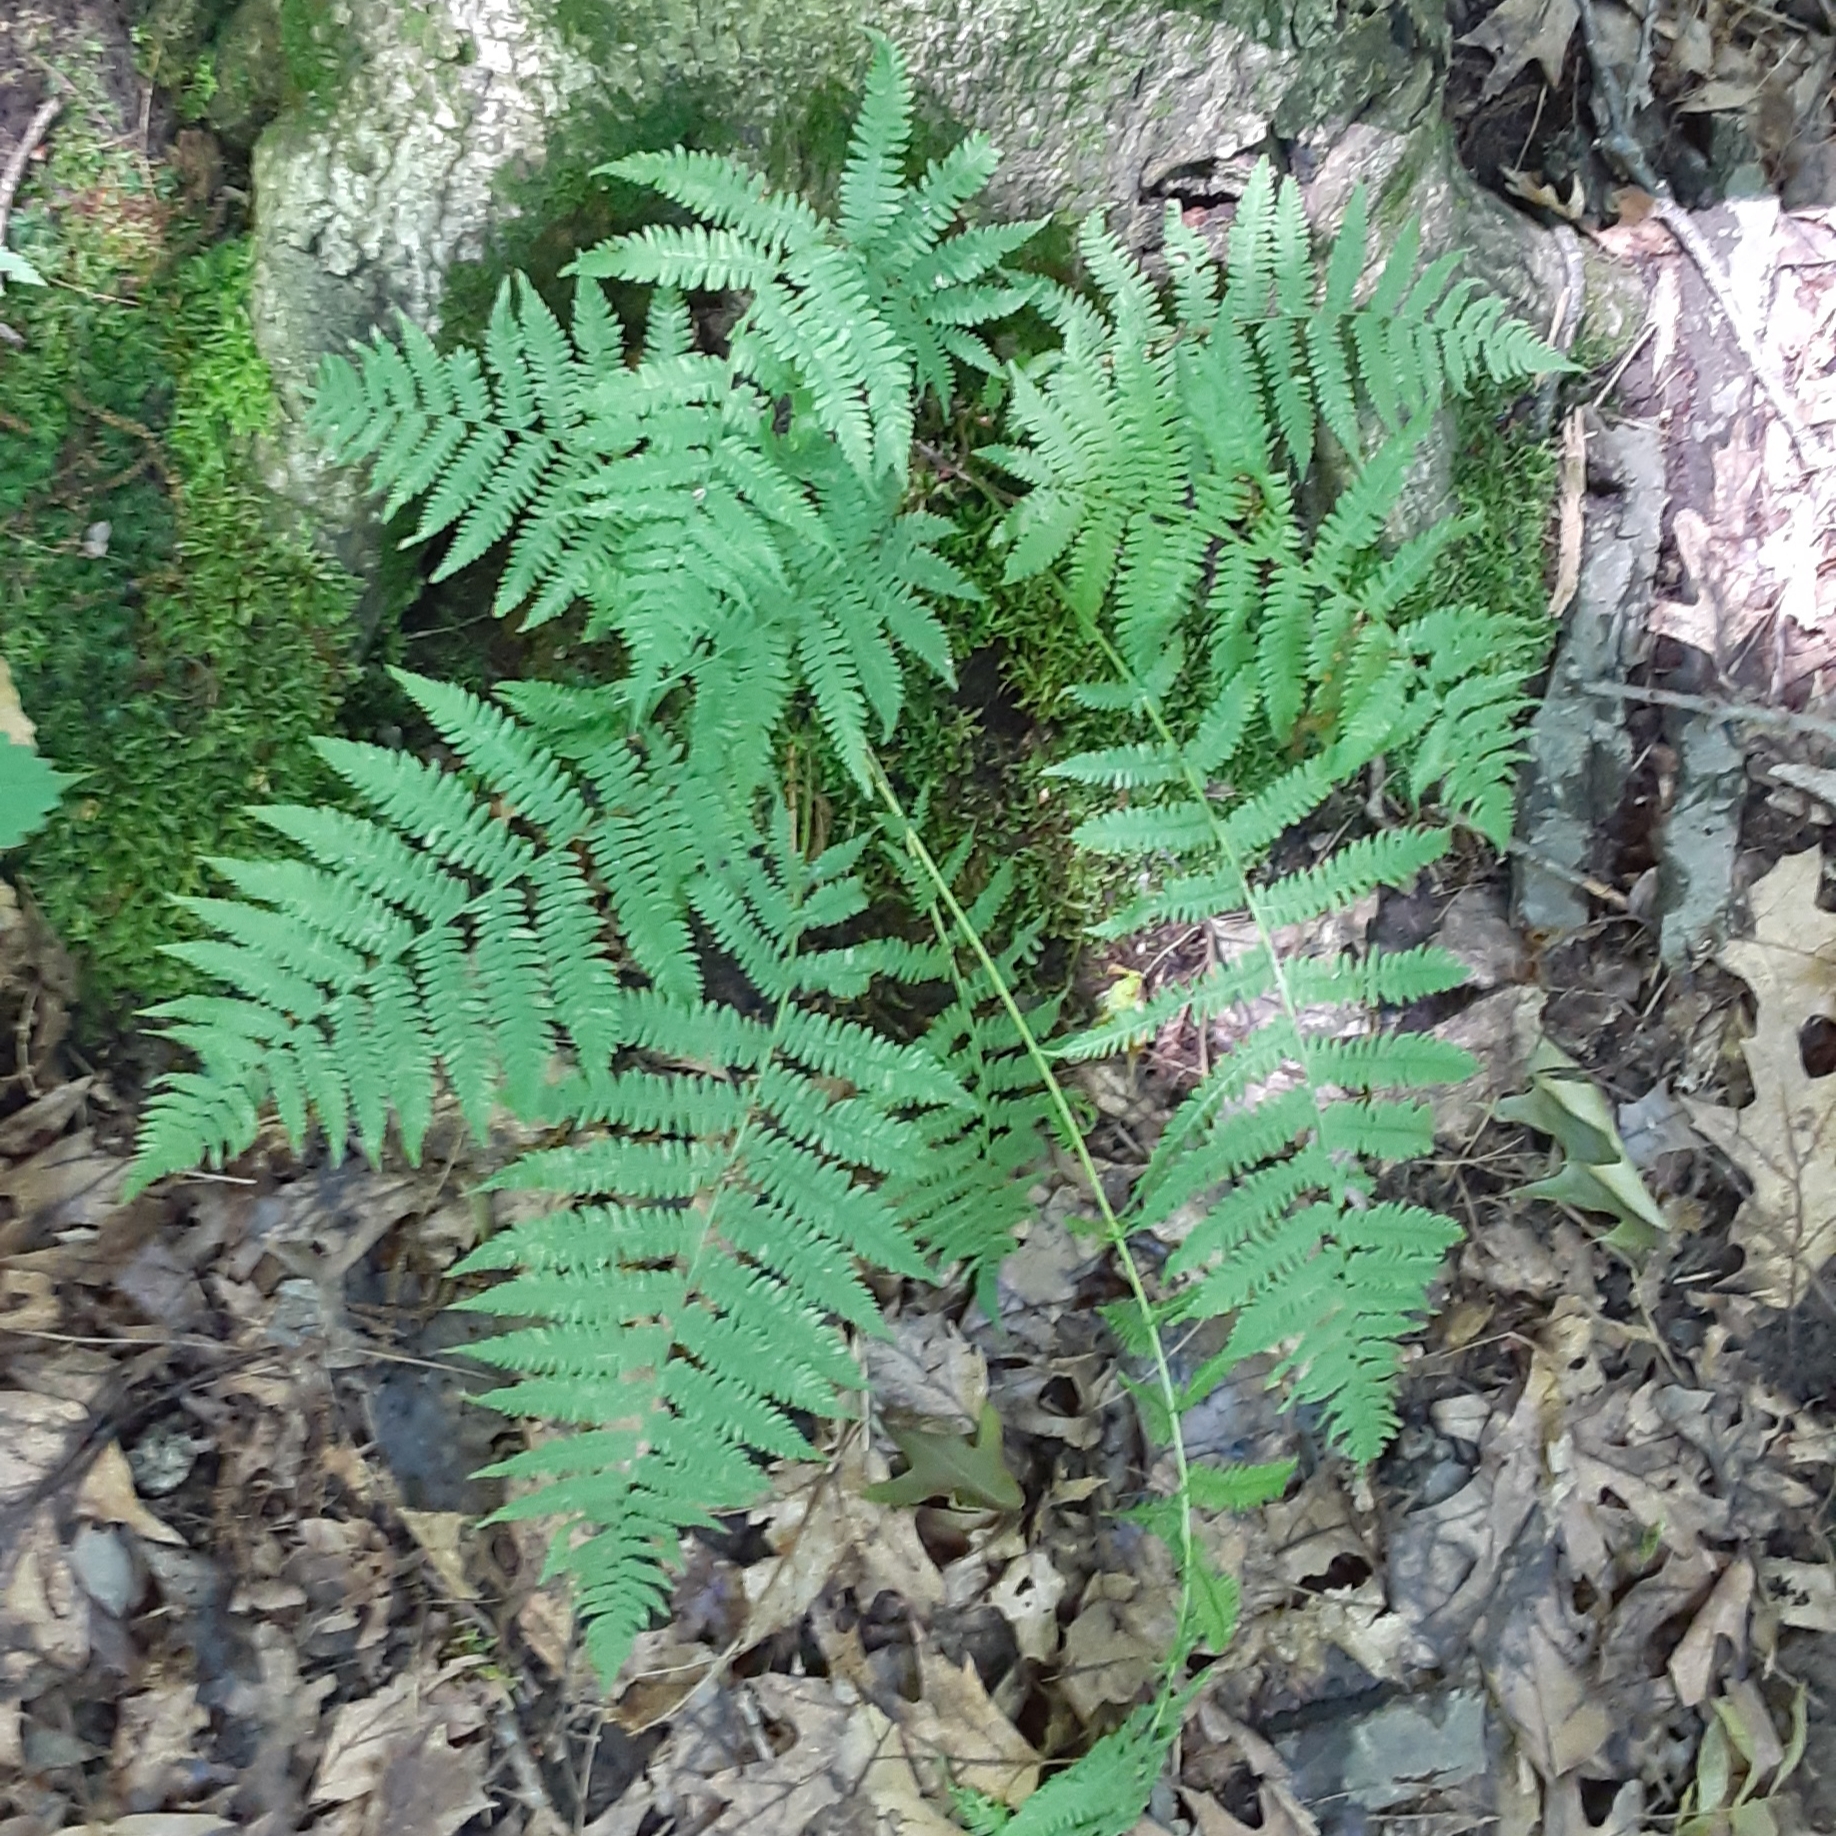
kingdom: Plantae
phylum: Tracheophyta
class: Polypodiopsida
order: Polypodiales
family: Athyriaceae
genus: Athyrium
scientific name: Athyrium angustum
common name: Northern lady fern
